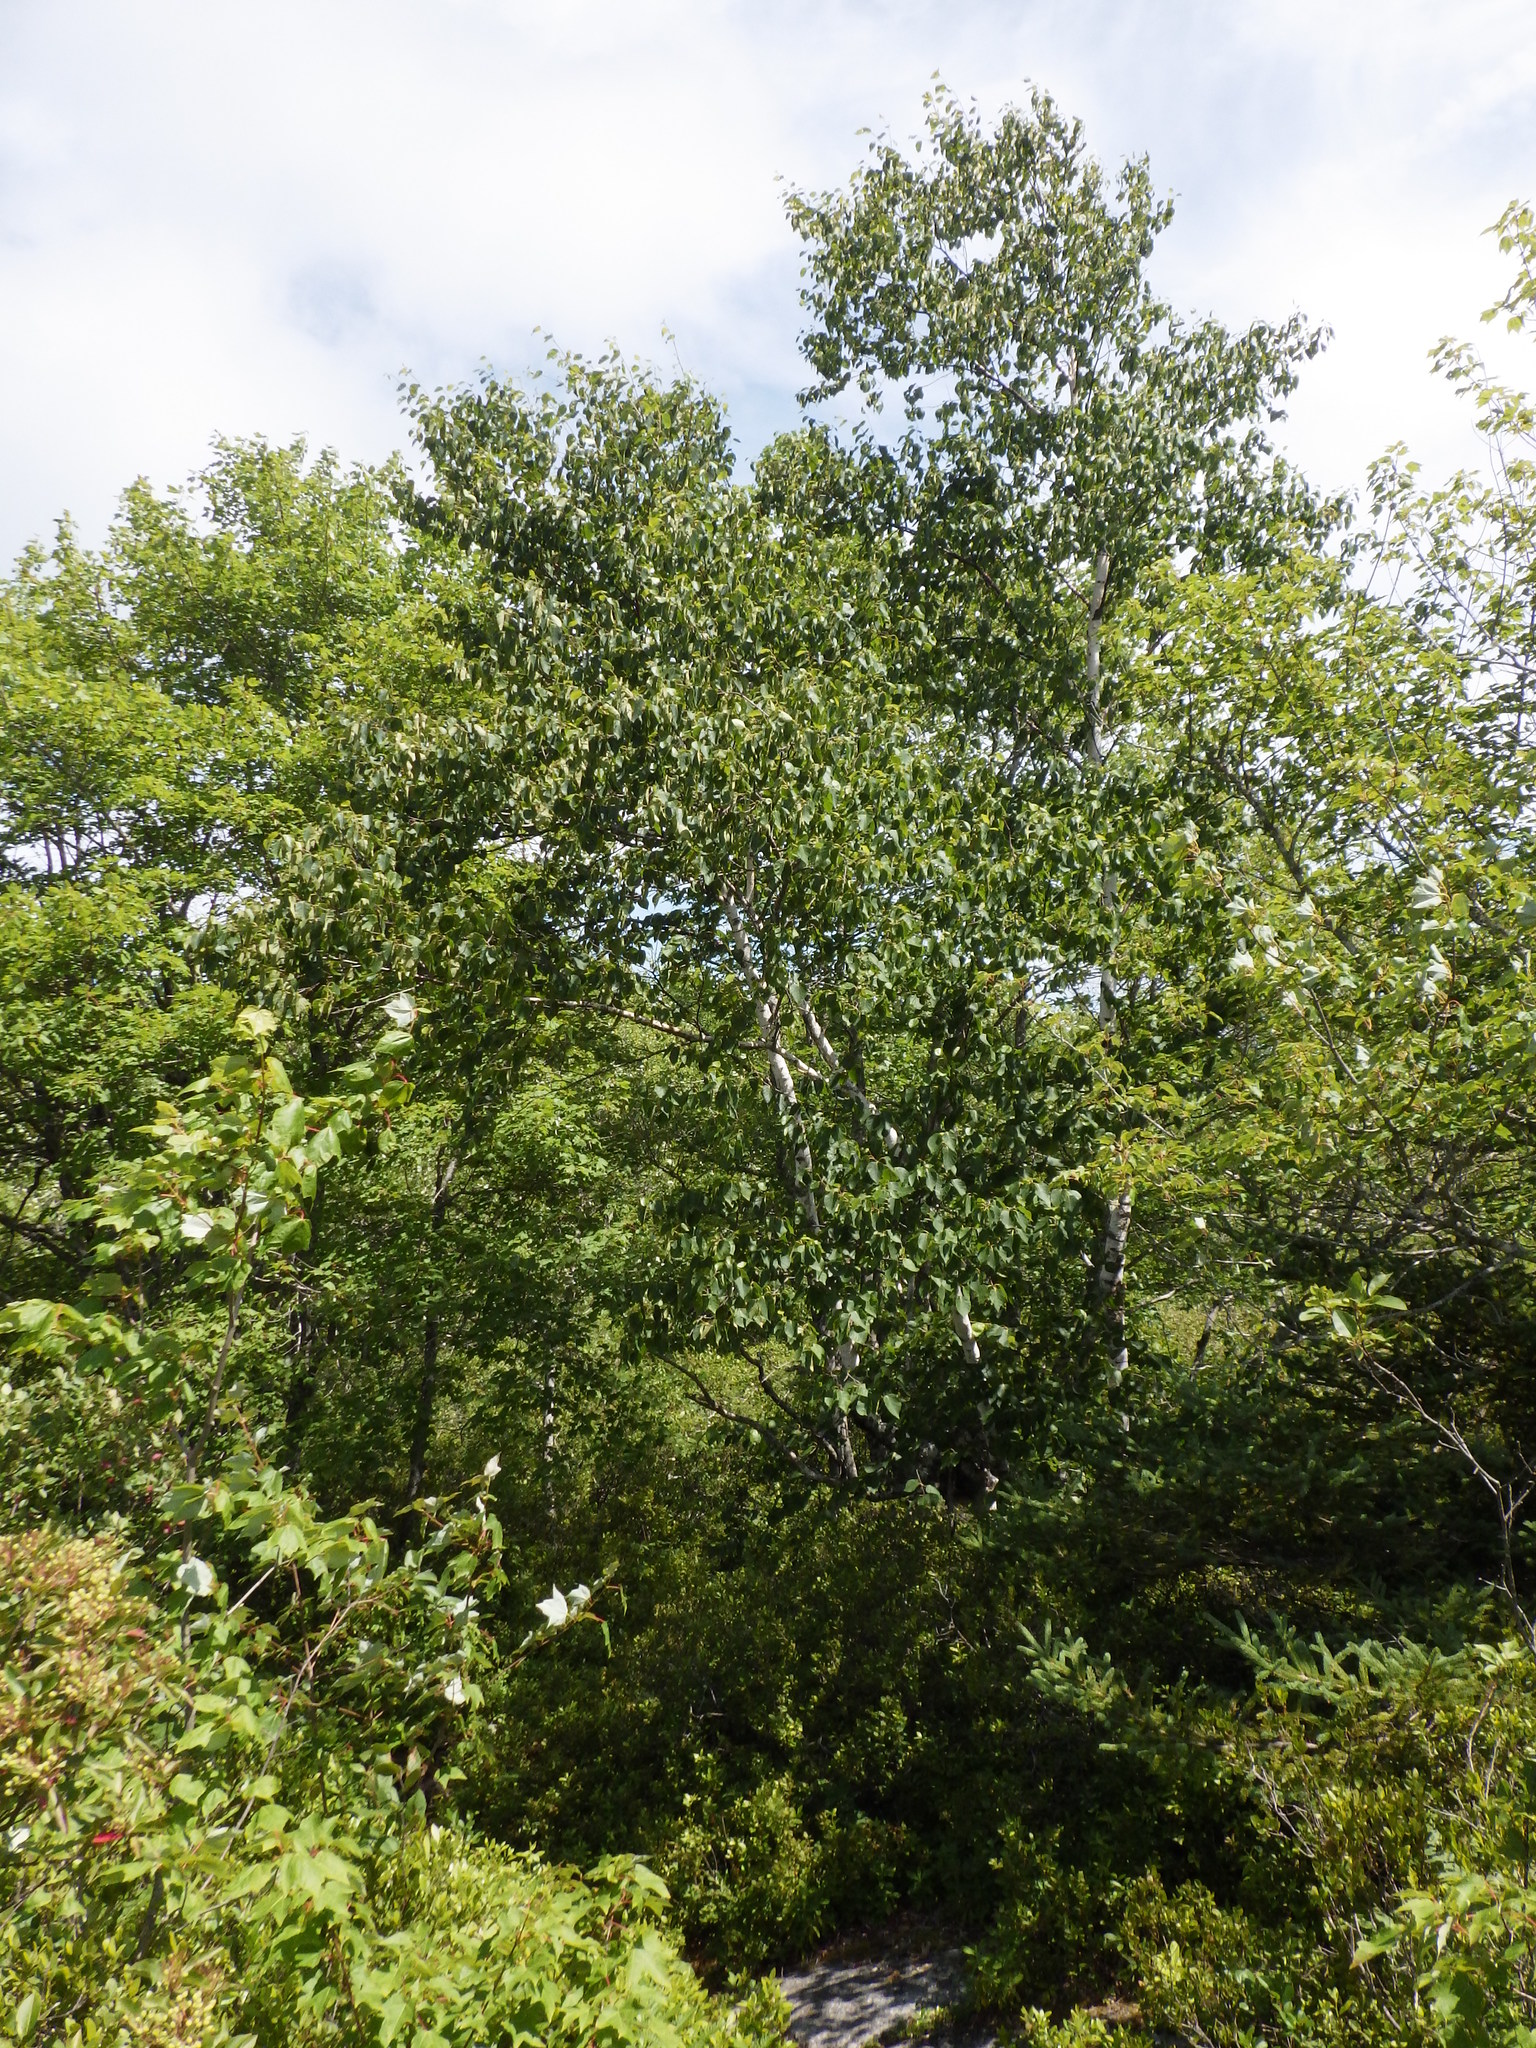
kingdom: Plantae
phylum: Tracheophyta
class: Magnoliopsida
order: Fagales
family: Betulaceae
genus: Betula
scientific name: Betula papyrifera
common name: Paper birch
